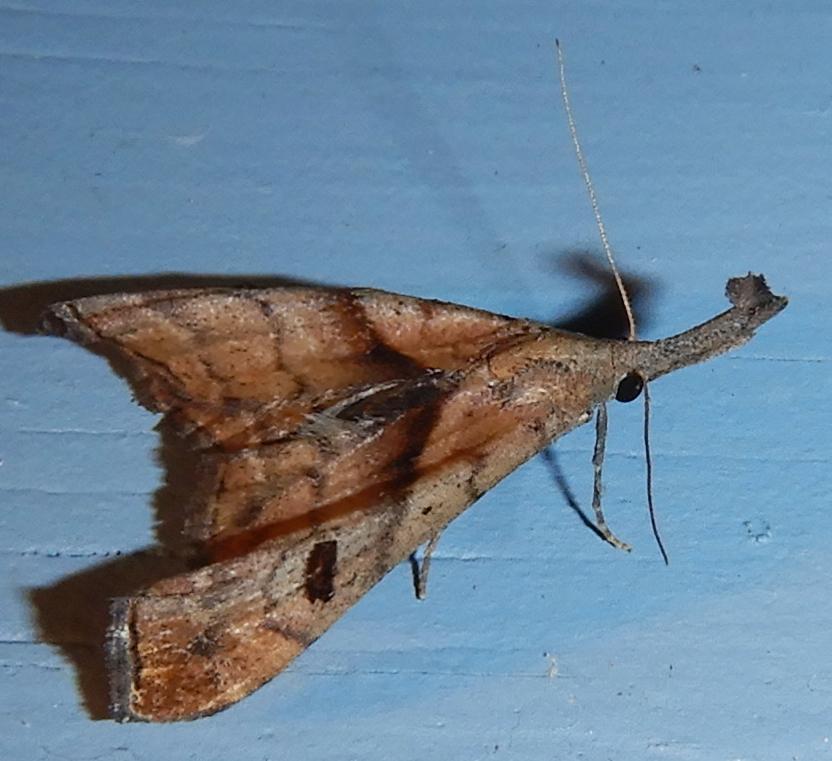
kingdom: Animalia
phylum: Arthropoda
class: Insecta
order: Lepidoptera
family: Erebidae
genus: Palthis
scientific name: Palthis angulalis
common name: Dark-spotted palthis moth
